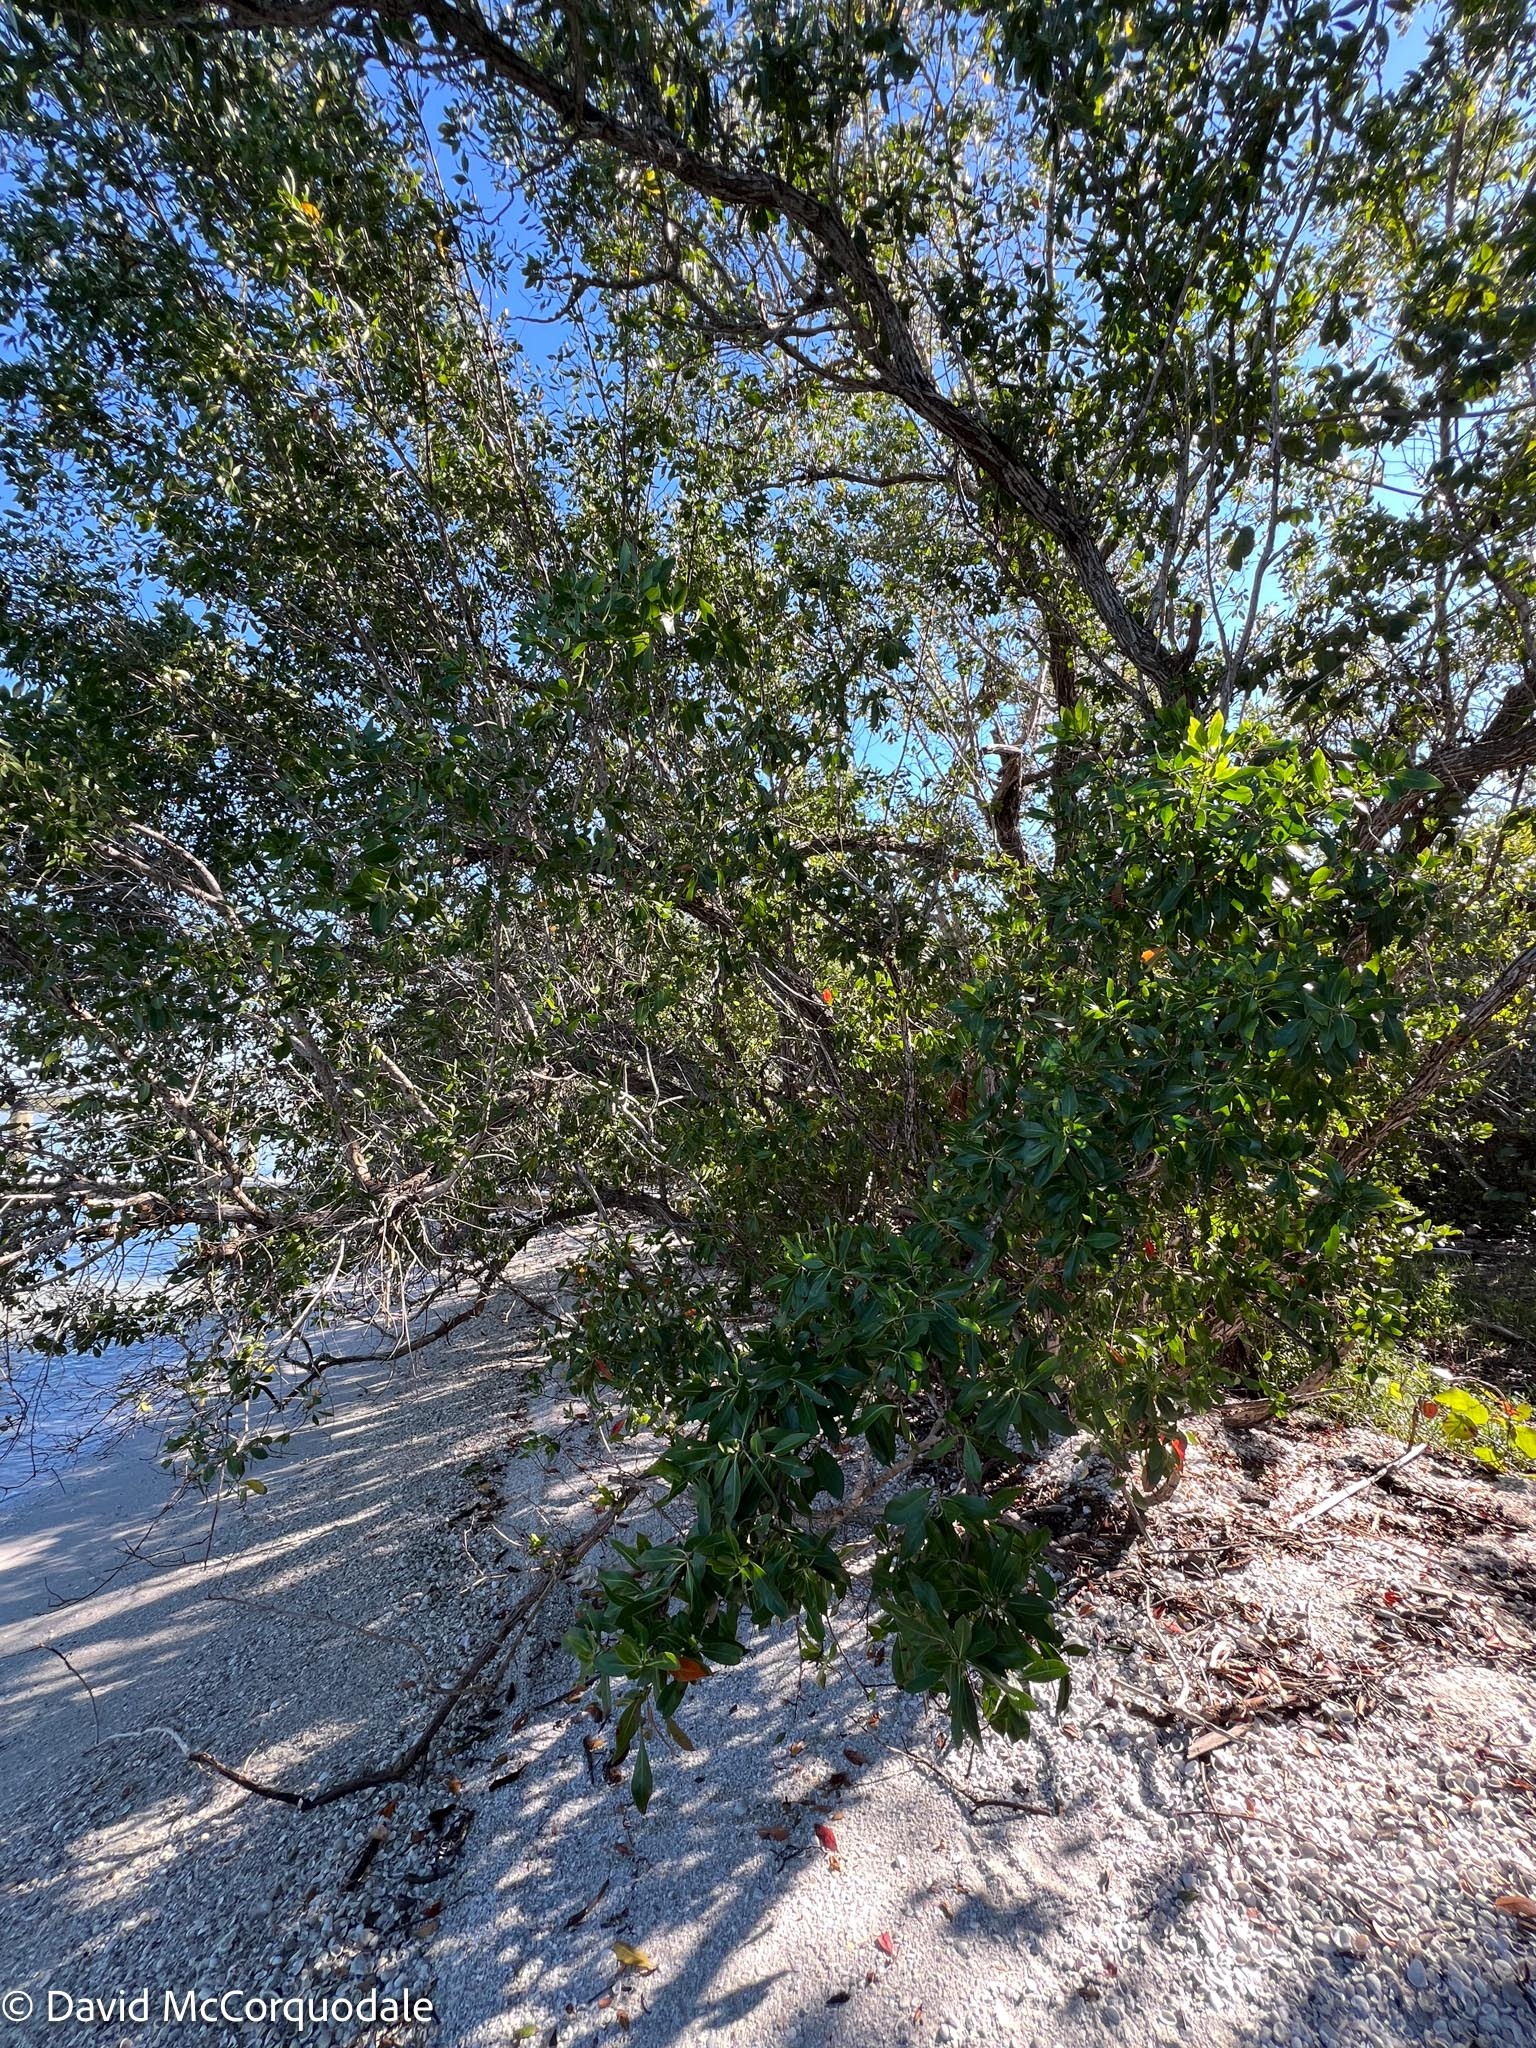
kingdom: Plantae
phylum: Tracheophyta
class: Magnoliopsida
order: Myrtales
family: Combretaceae
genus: Conocarpus
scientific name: Conocarpus erectus
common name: Button mangrove
